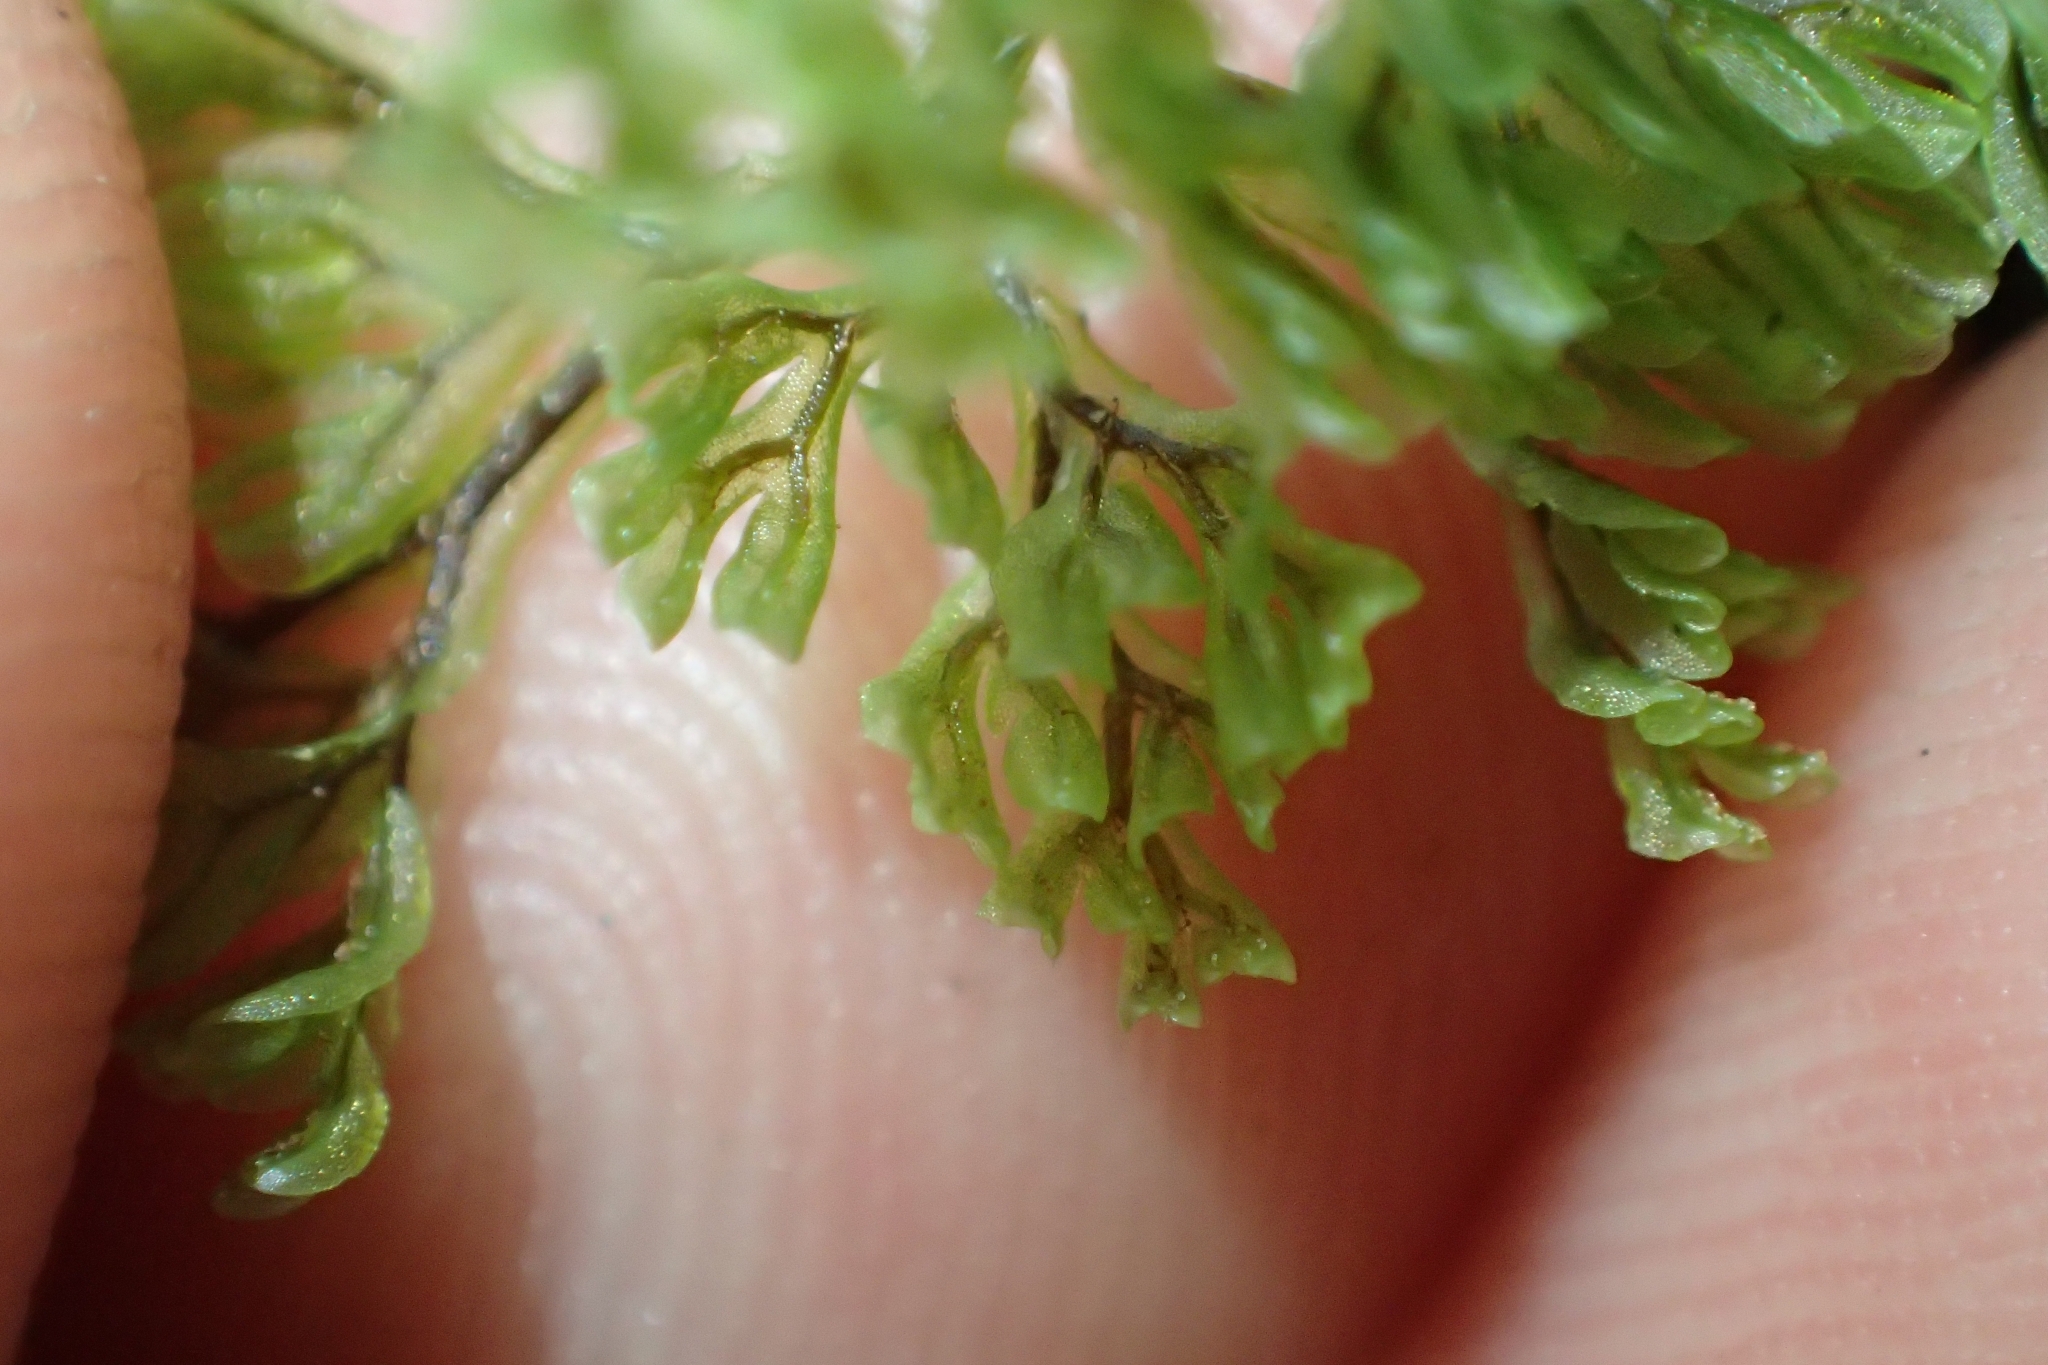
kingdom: Plantae
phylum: Tracheophyta
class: Polypodiopsida
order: Hymenophyllales
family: Hymenophyllaceae
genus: Hymenophyllum
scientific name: Hymenophyllum villosum
